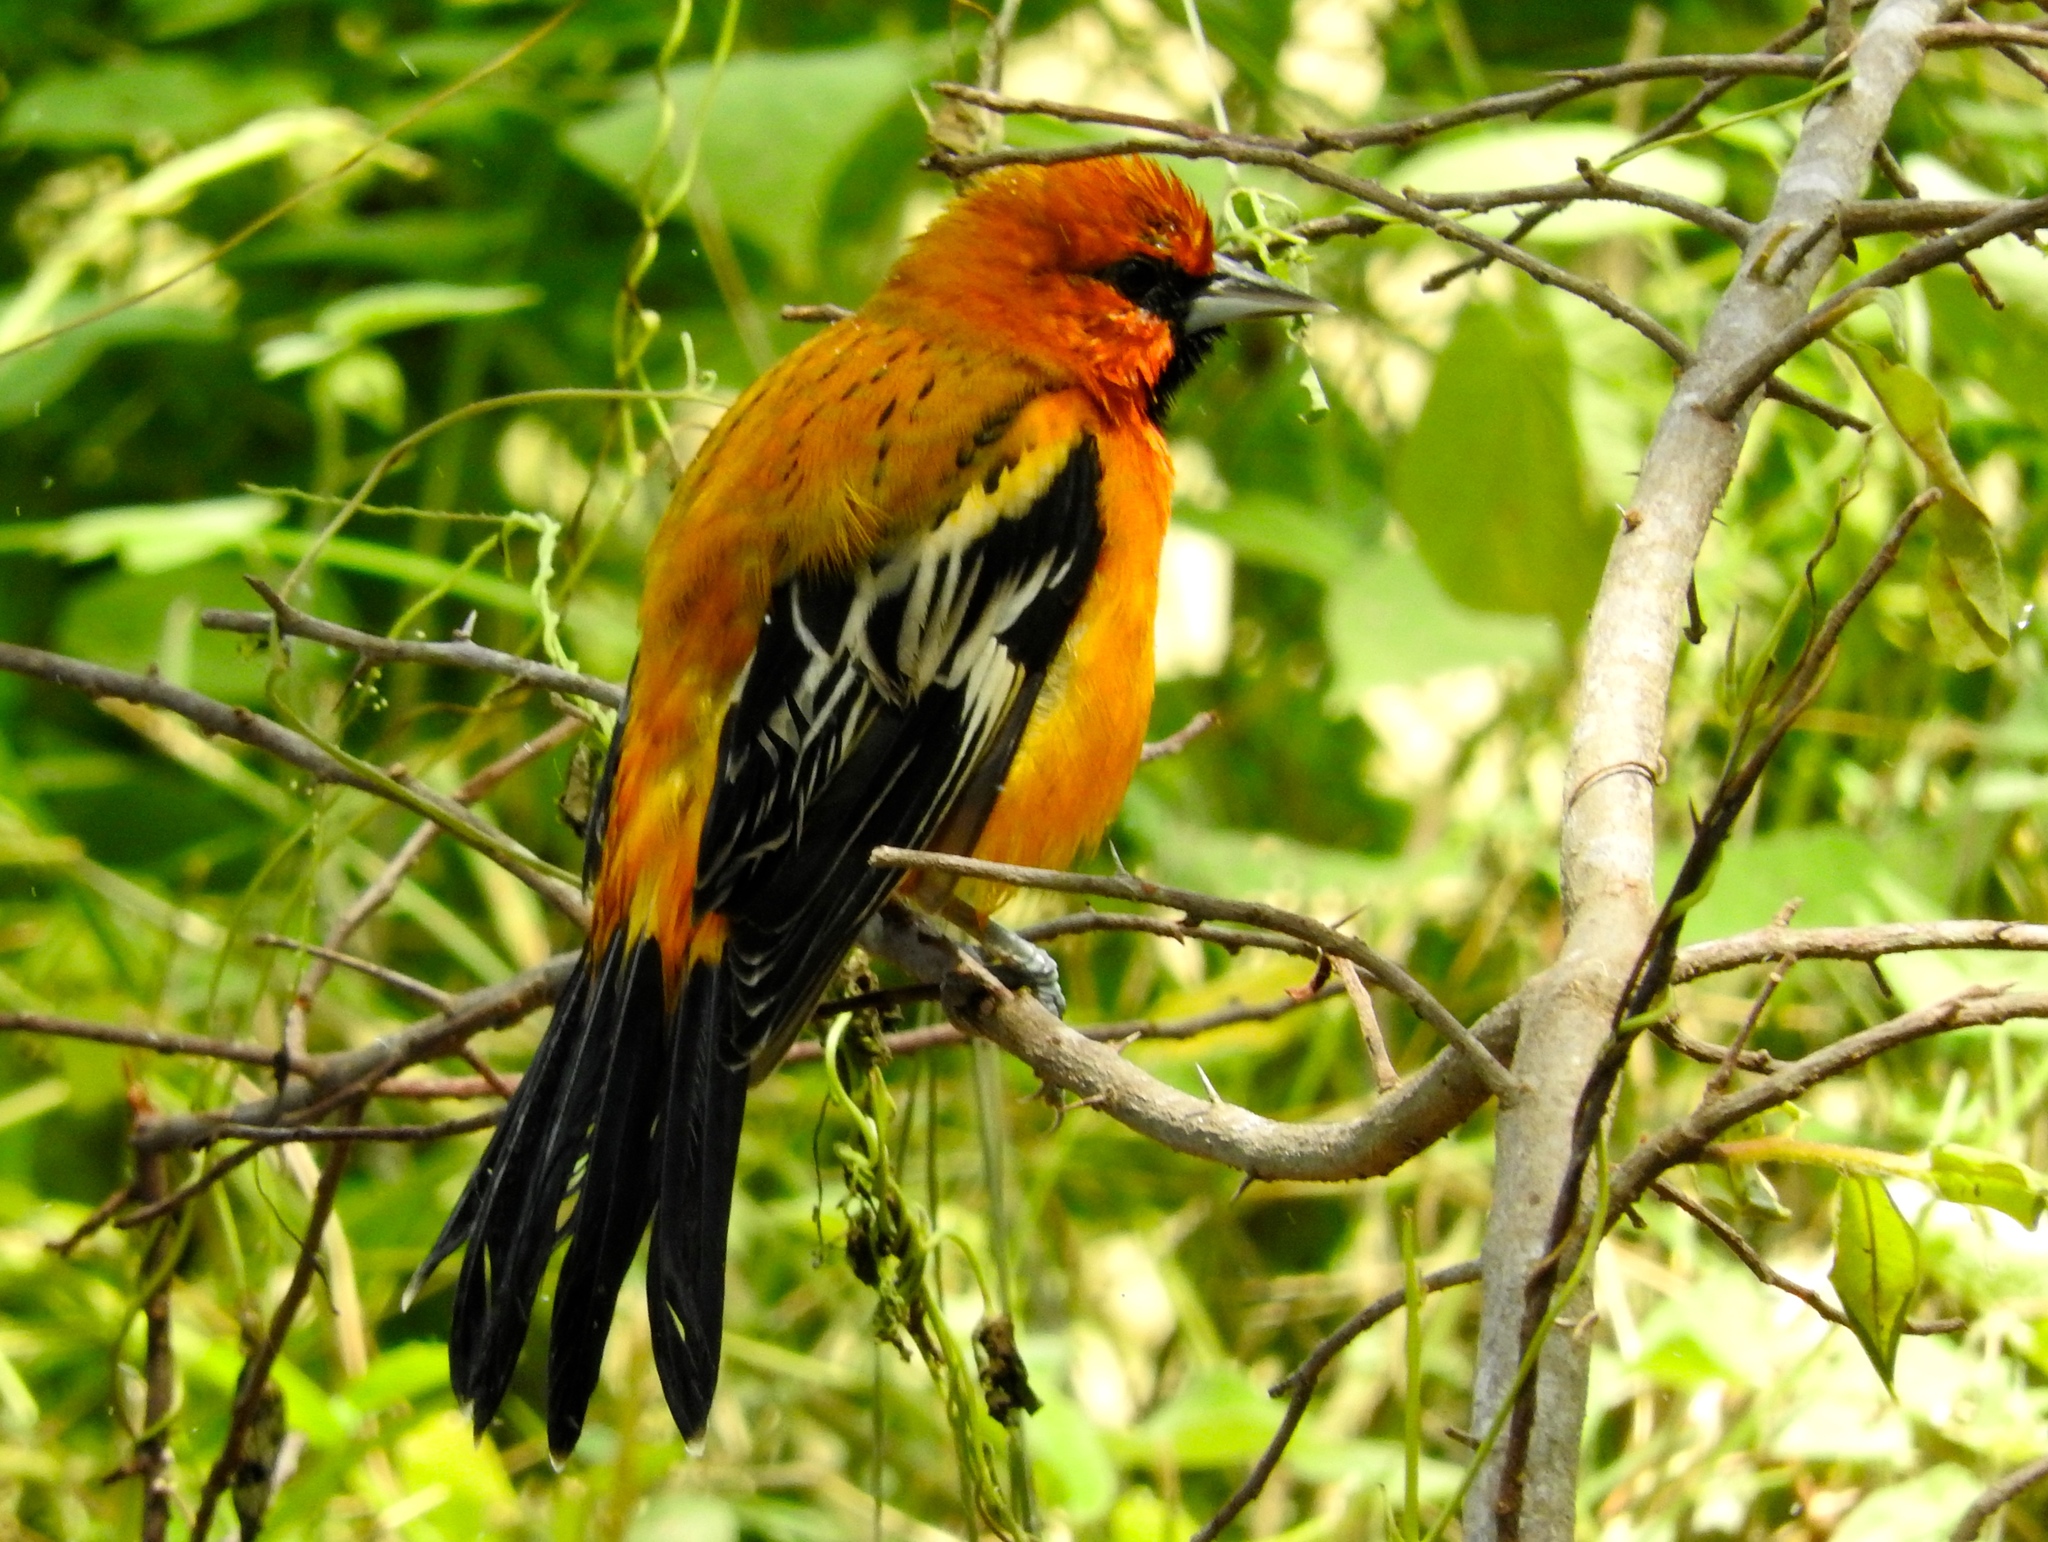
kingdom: Animalia
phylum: Chordata
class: Aves
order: Passeriformes
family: Icteridae
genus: Icterus
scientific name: Icterus pustulatus
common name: Streak-backed oriole
